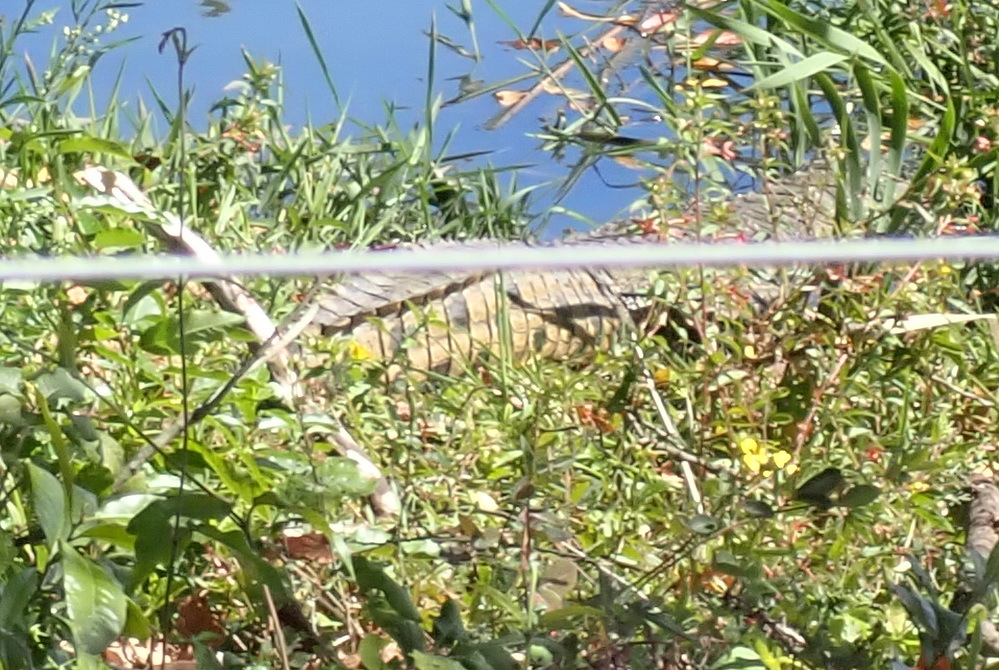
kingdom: Animalia
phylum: Chordata
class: Crocodylia
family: Crocodylidae
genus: Crocodylus
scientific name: Crocodylus niloticus
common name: Nile crocodile
